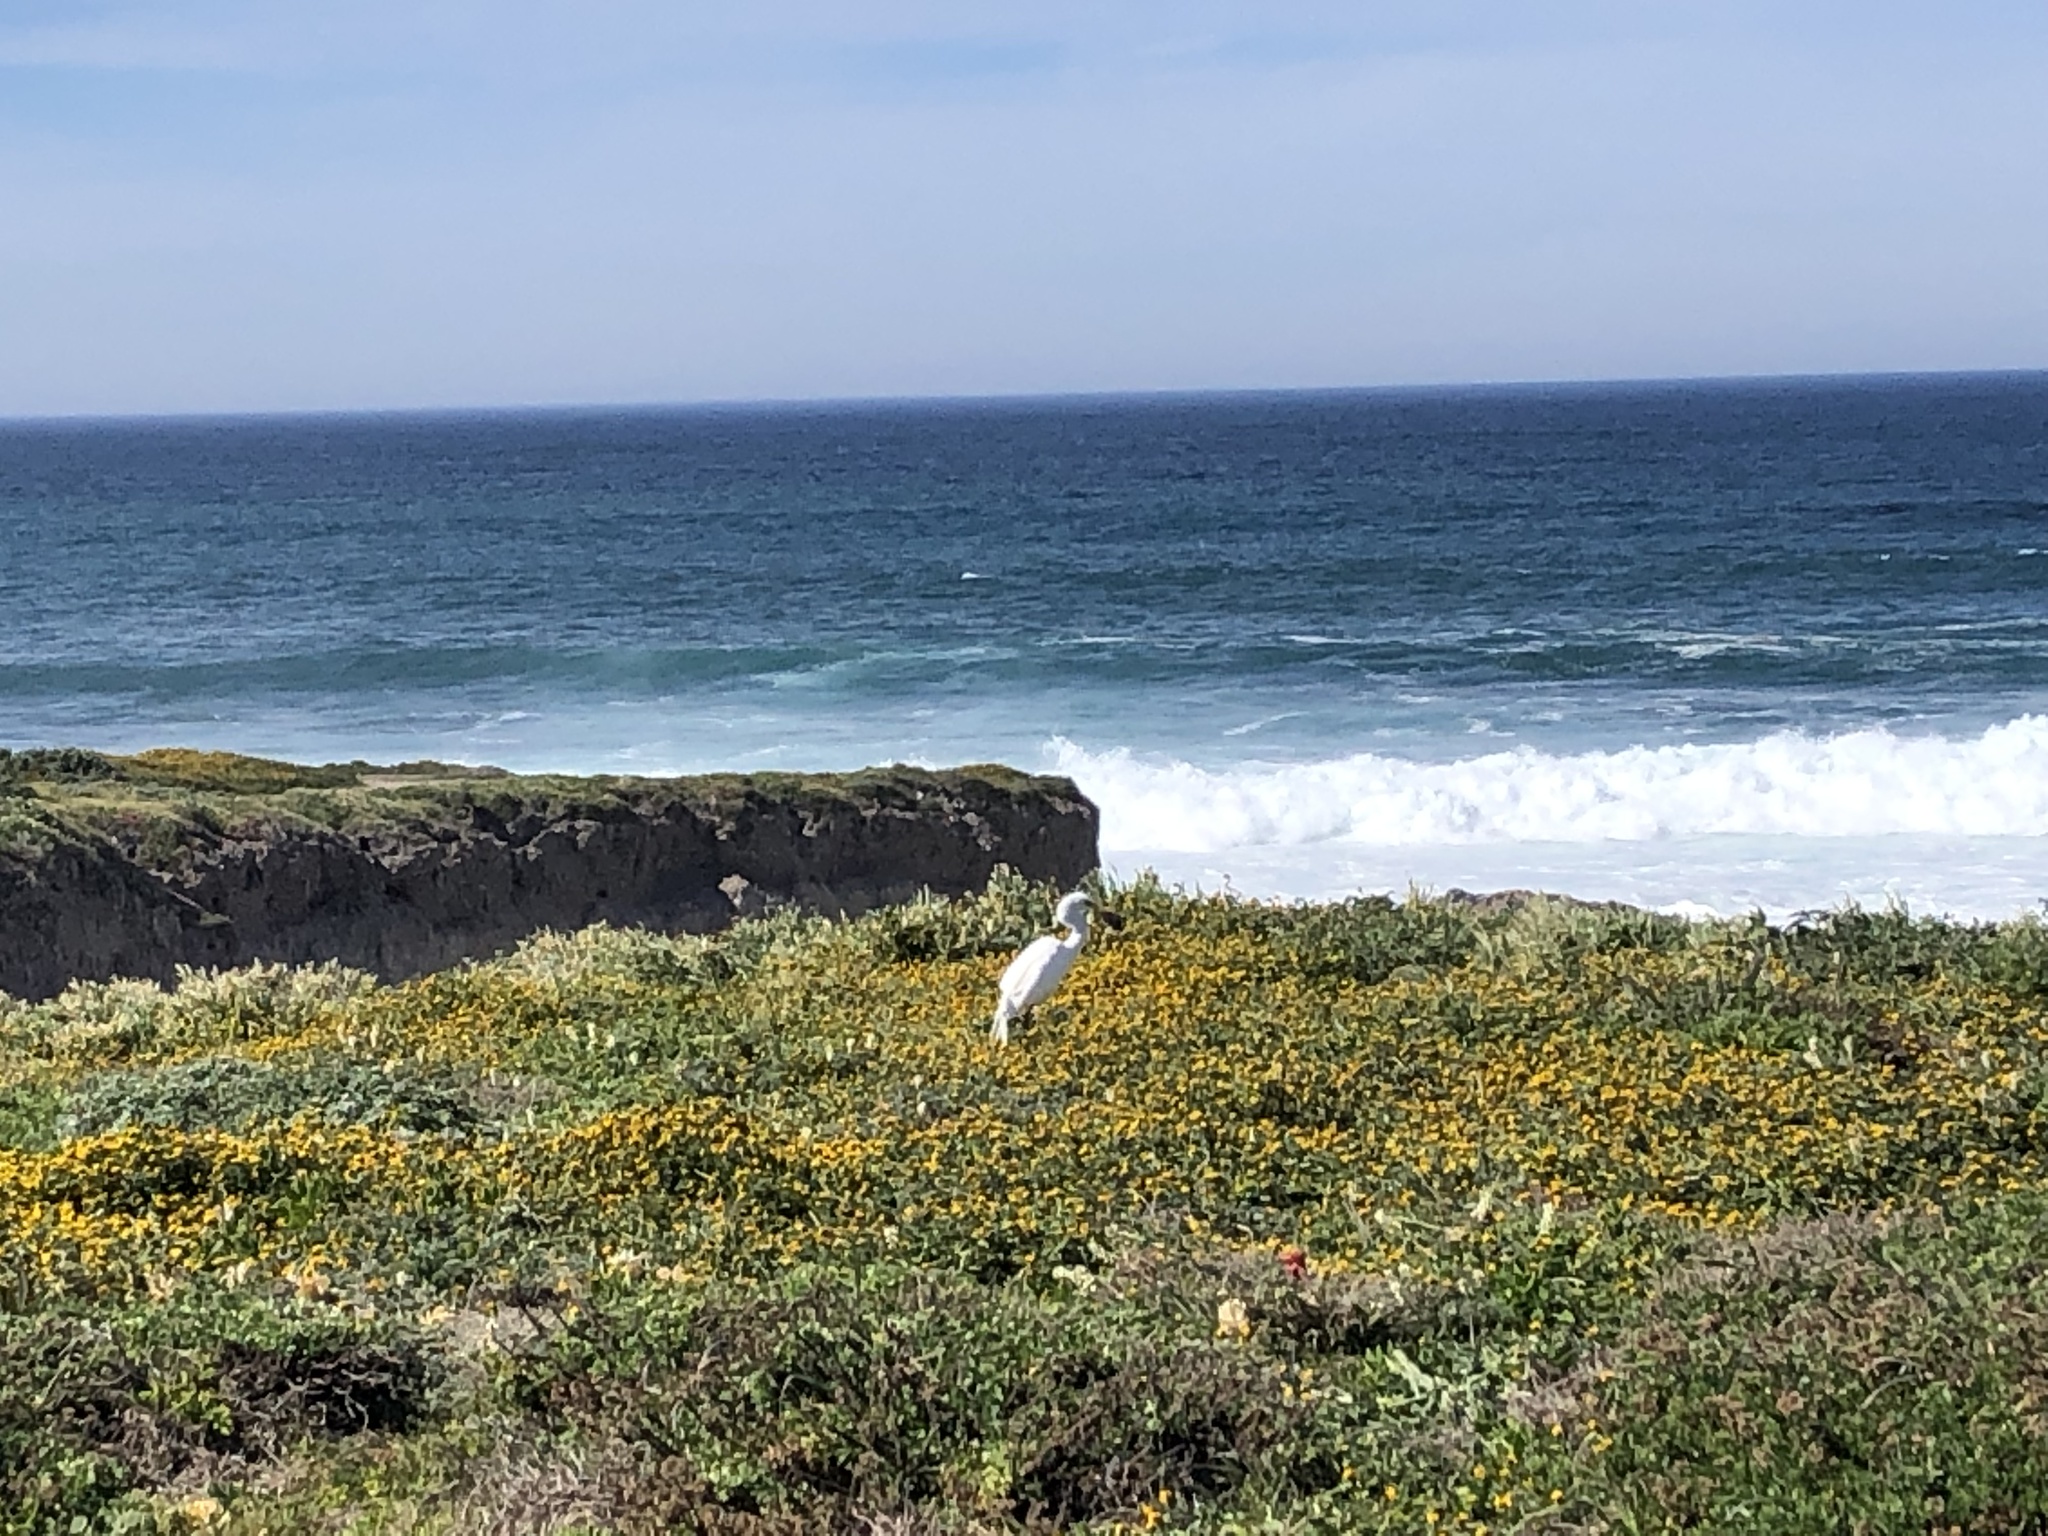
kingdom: Animalia
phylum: Chordata
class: Aves
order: Pelecaniformes
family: Ardeidae
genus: Ardea
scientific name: Ardea alba
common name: Great egret
